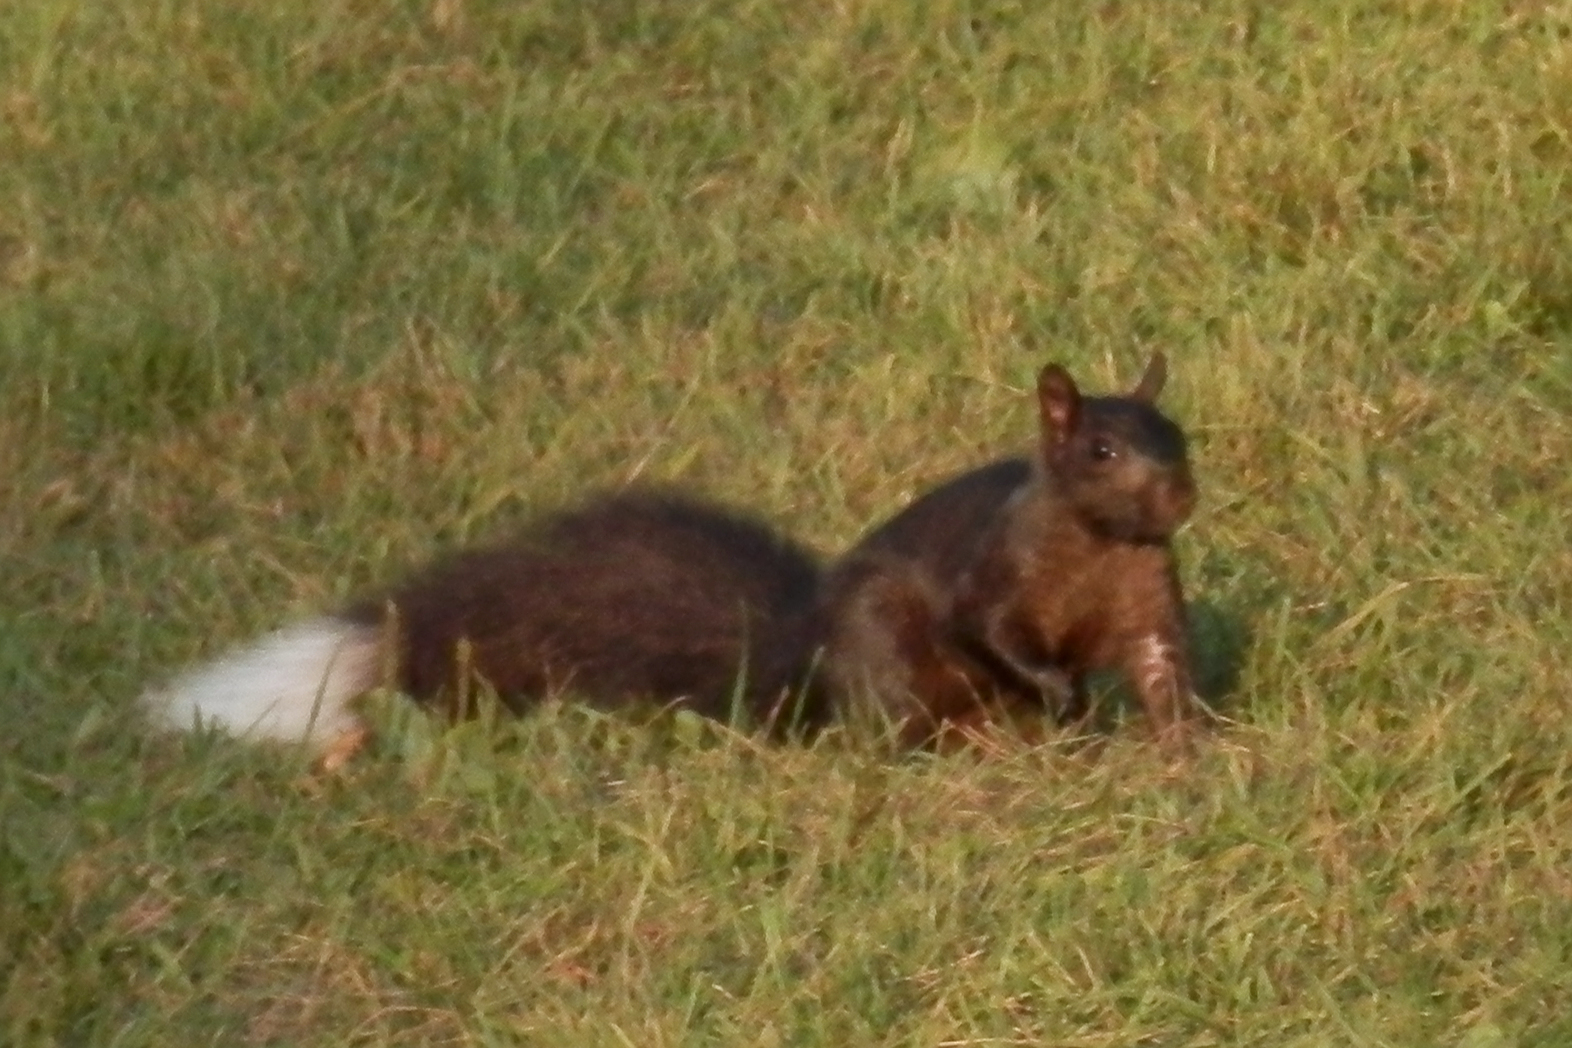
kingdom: Animalia
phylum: Chordata
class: Mammalia
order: Rodentia
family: Sciuridae
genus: Sciurus
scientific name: Sciurus carolinensis
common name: Eastern gray squirrel
